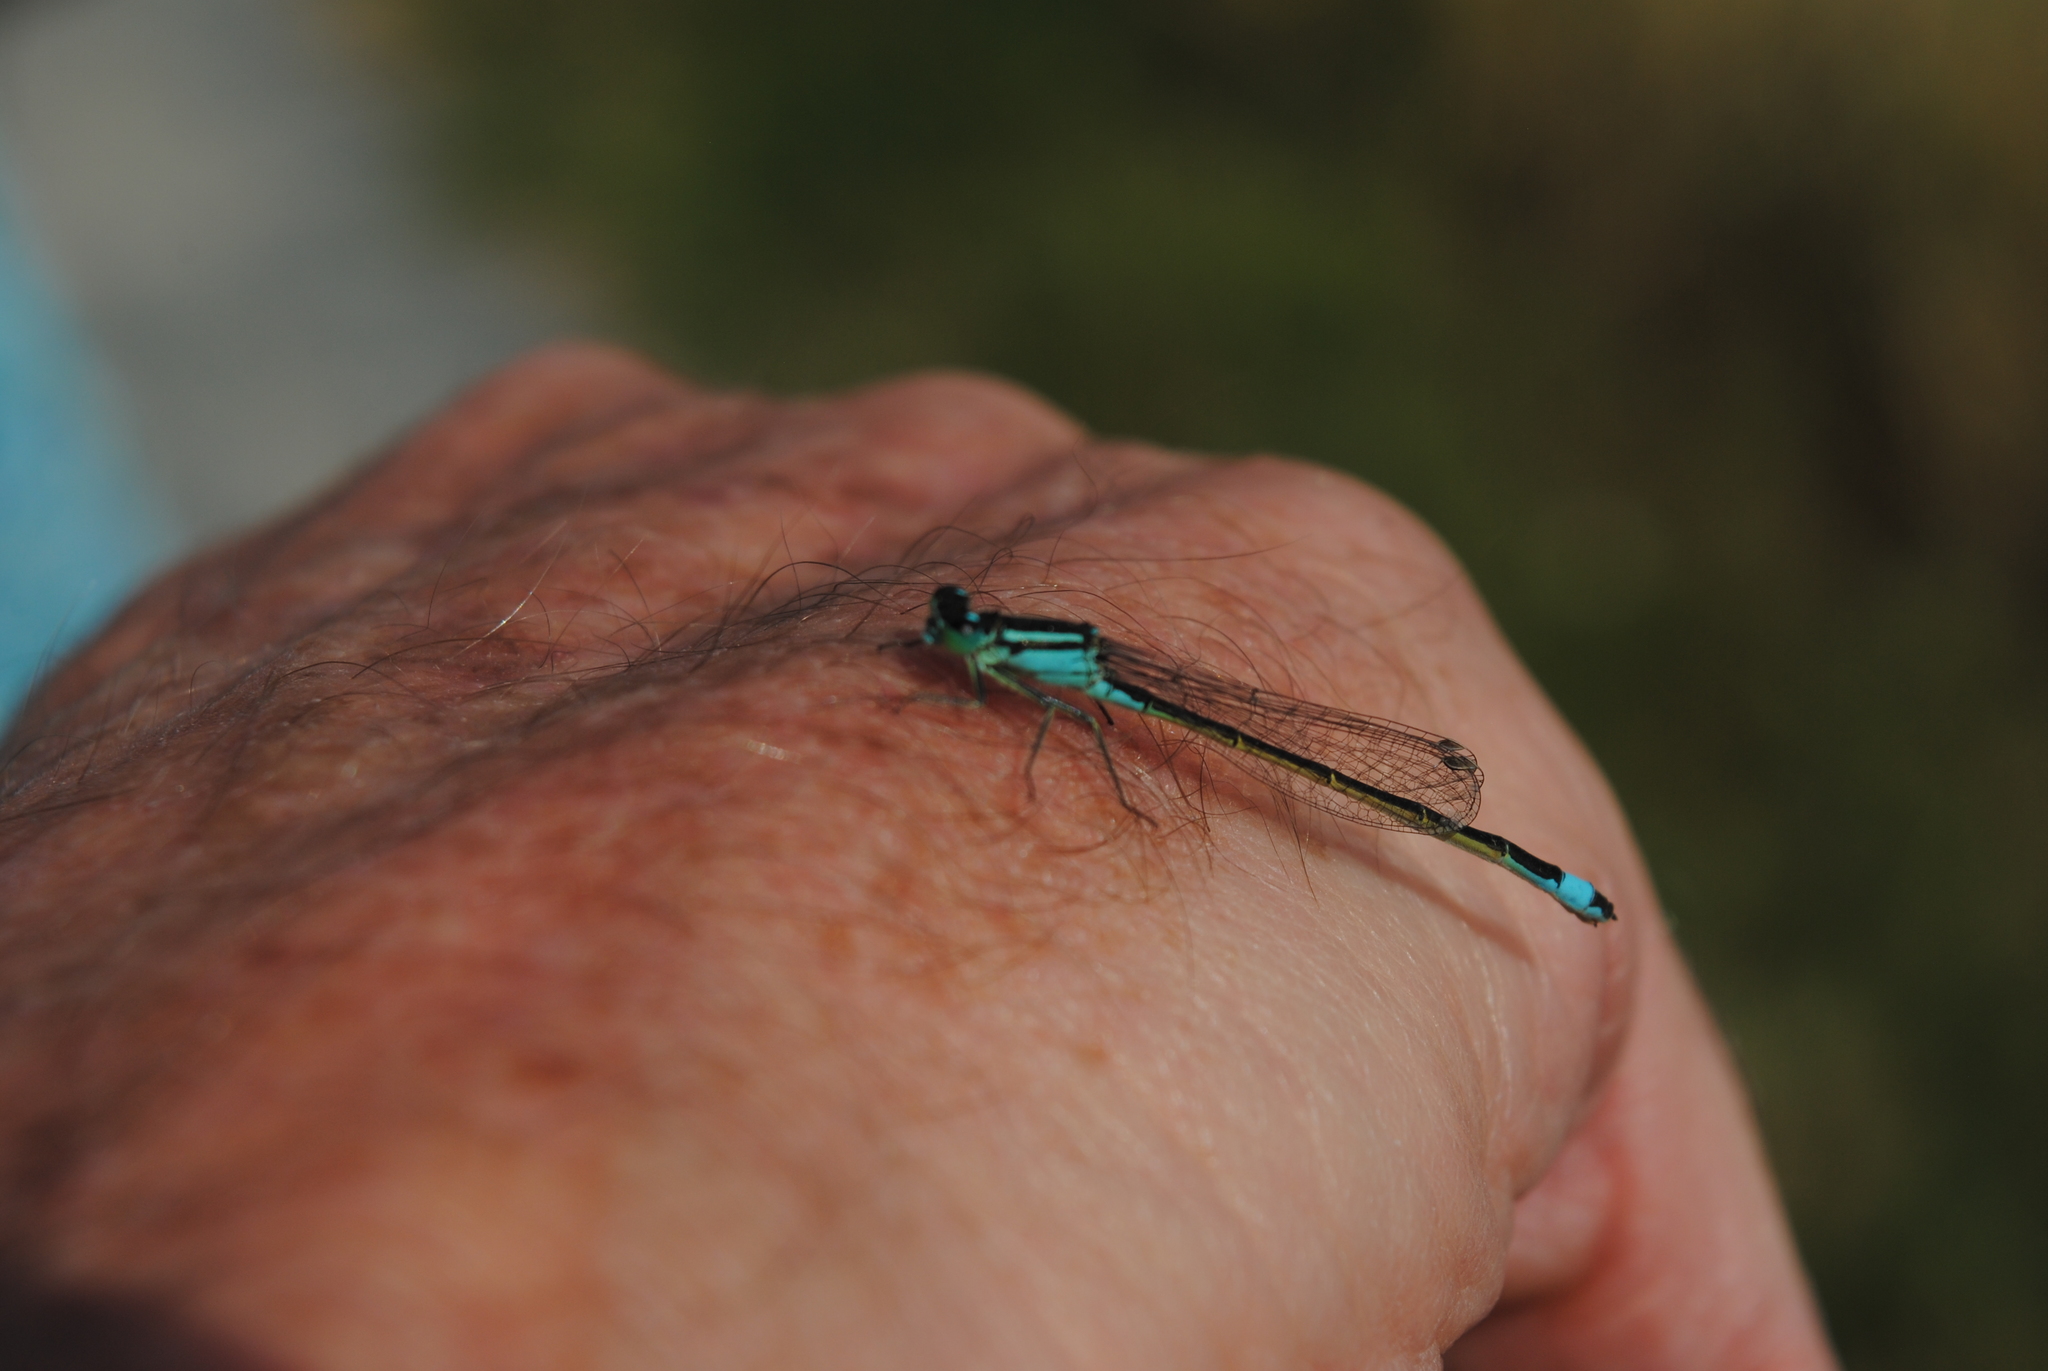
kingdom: Animalia
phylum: Arthropoda
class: Insecta
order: Odonata
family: Coenagrionidae
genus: Ischnura
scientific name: Ischnura elegans
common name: Blue-tailed damselfly
